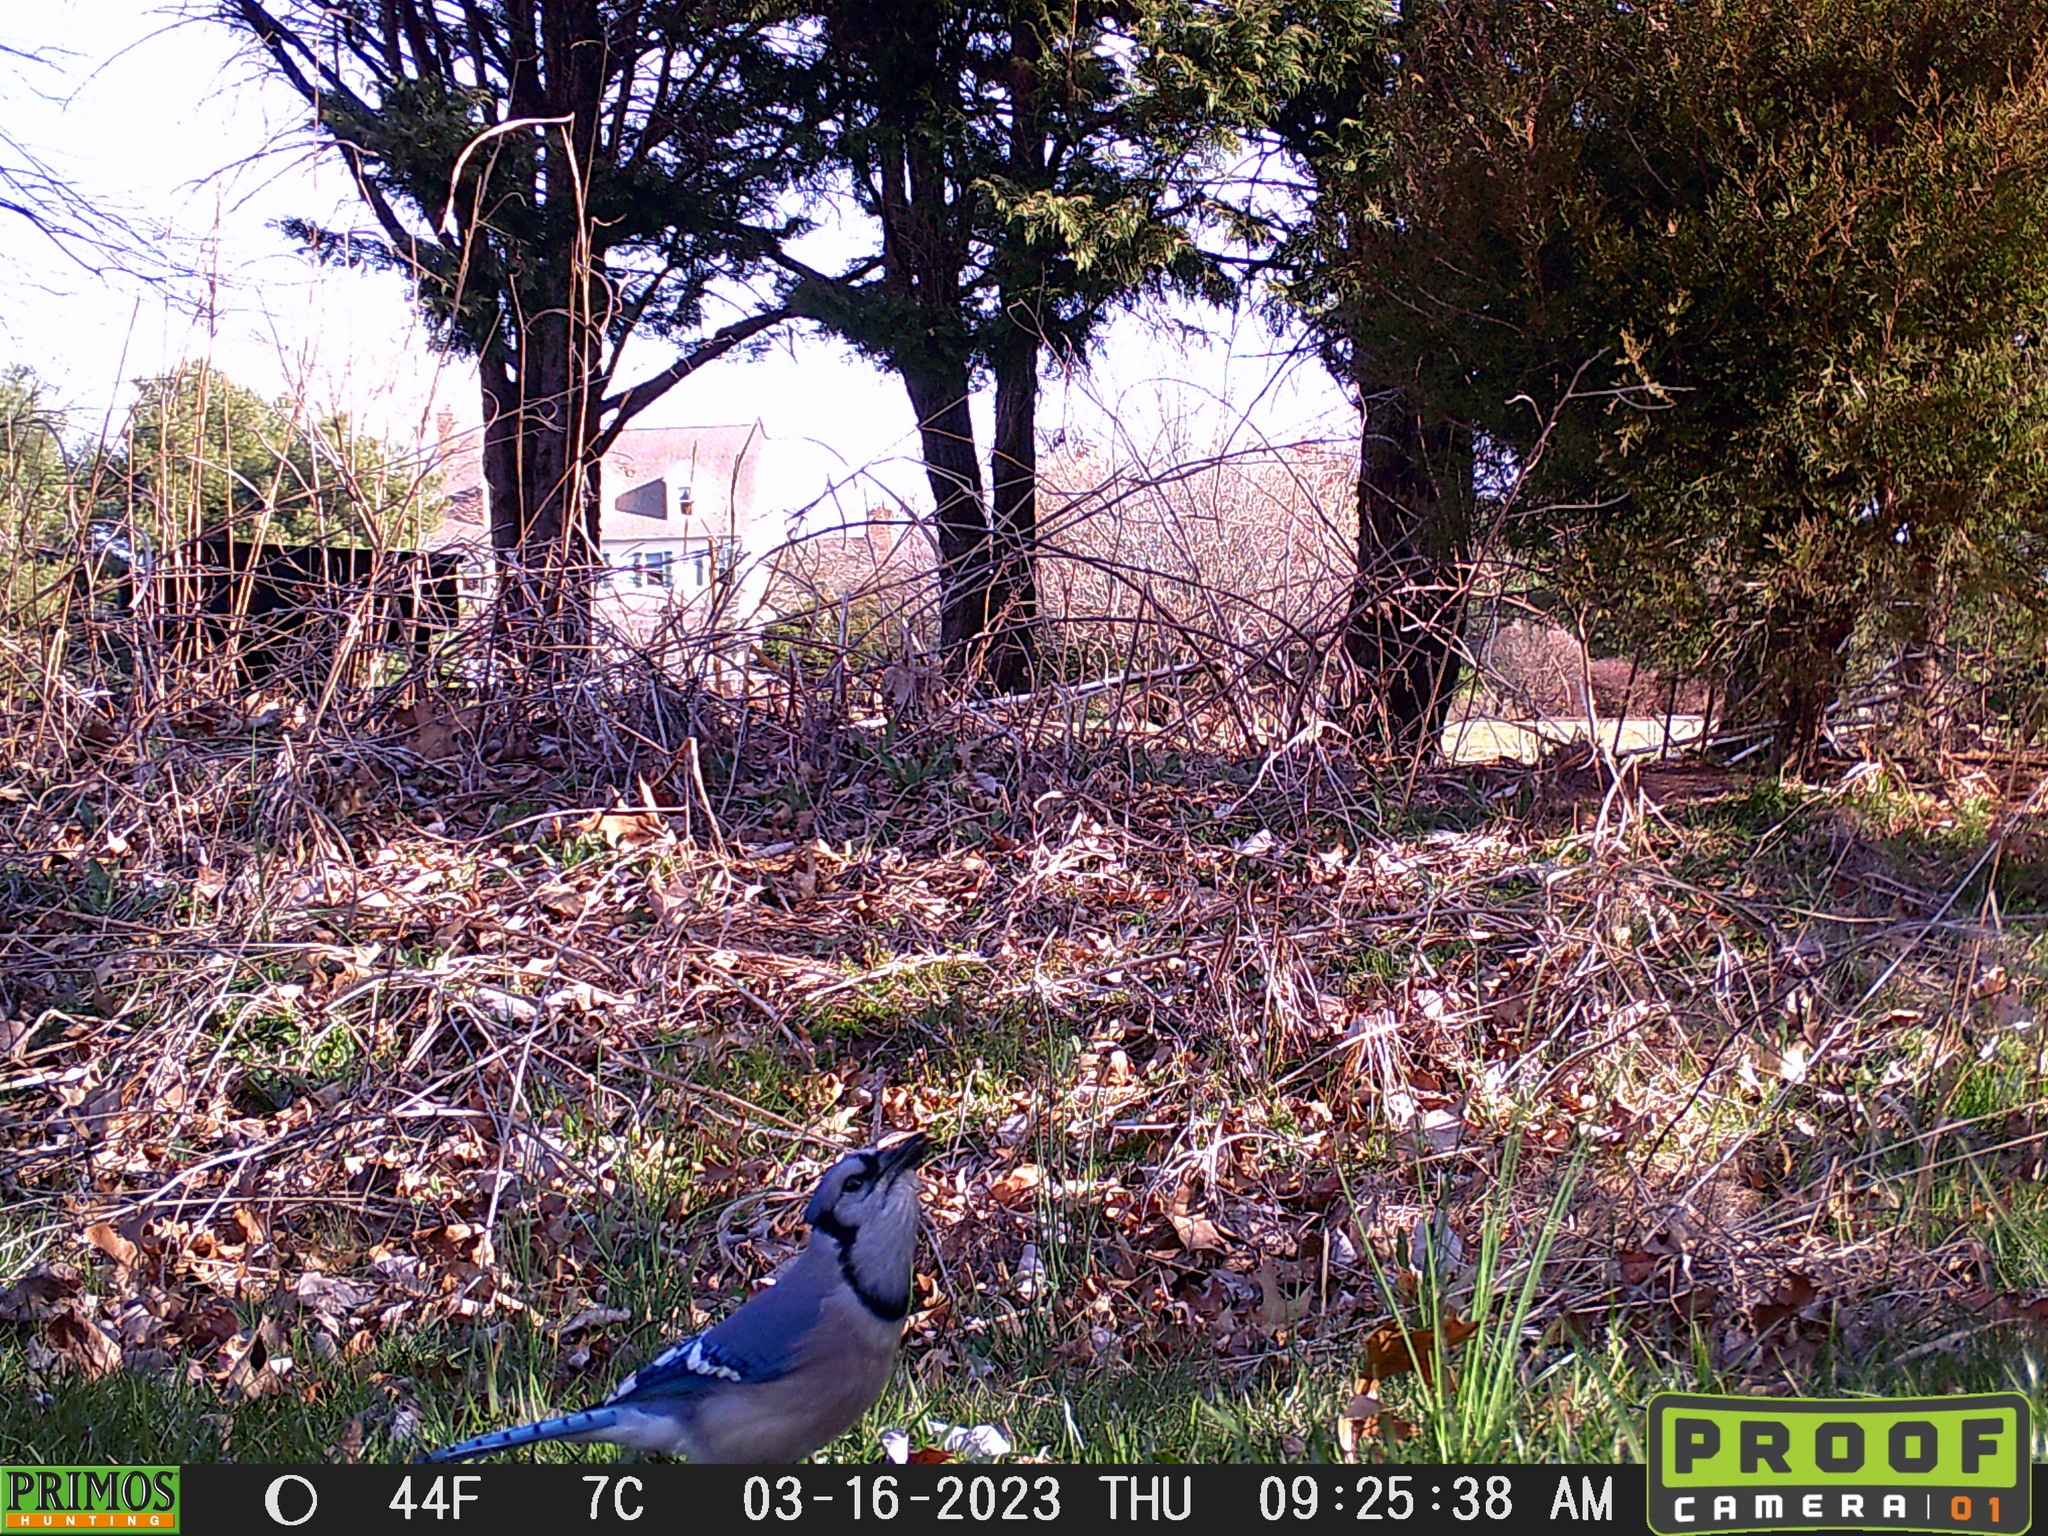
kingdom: Animalia
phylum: Chordata
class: Aves
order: Passeriformes
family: Corvidae
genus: Cyanocitta
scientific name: Cyanocitta cristata
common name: Blue jay
